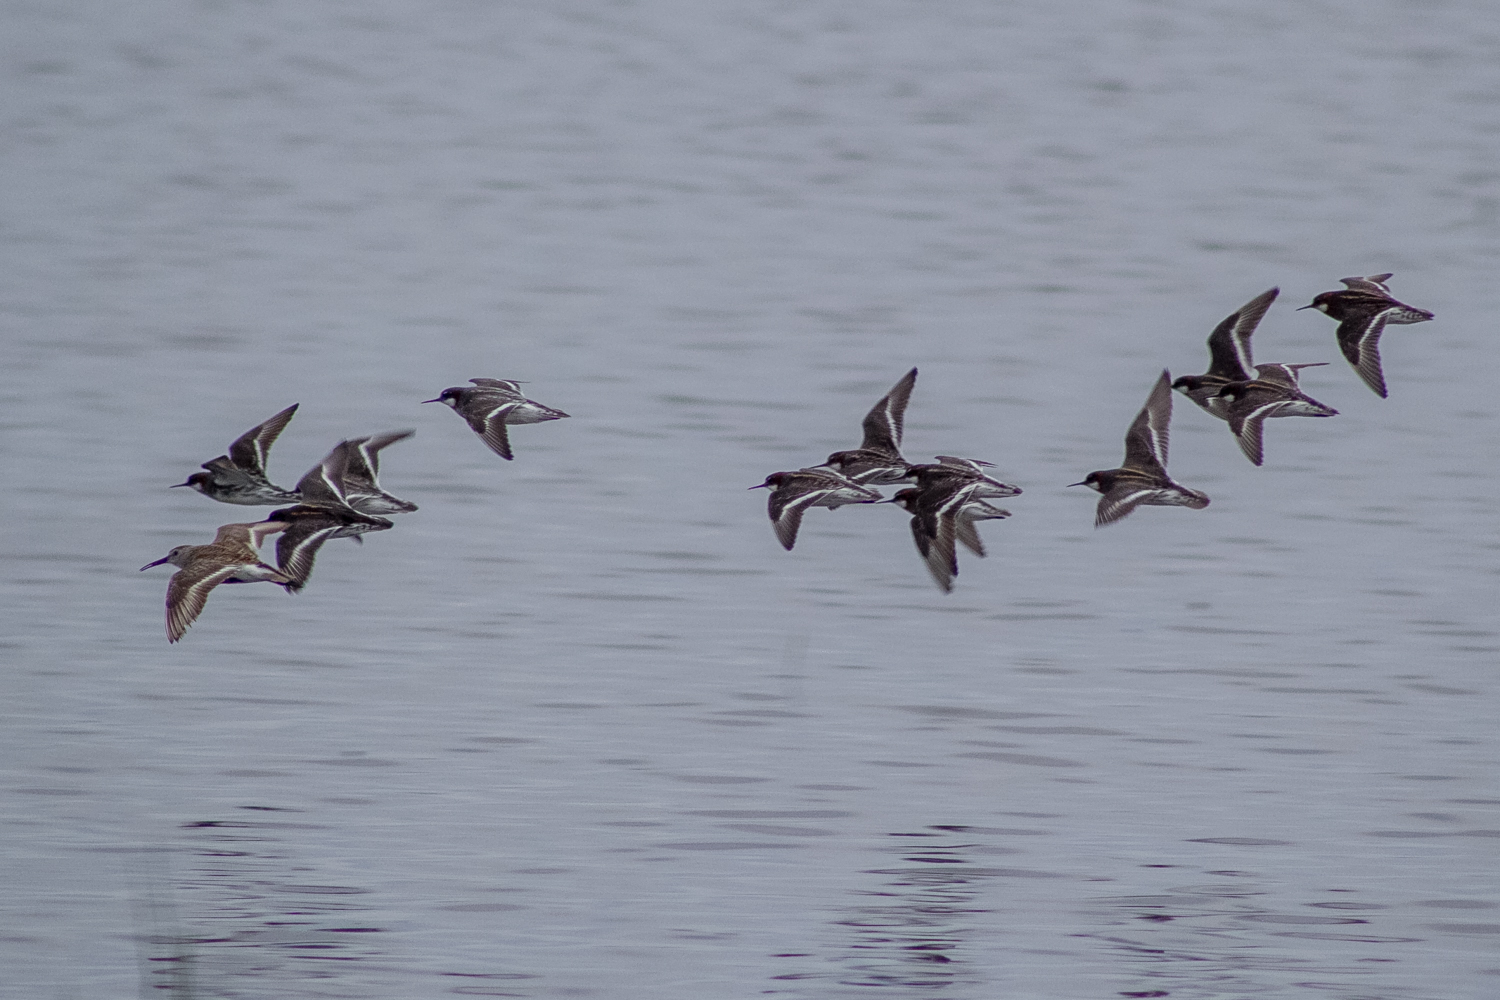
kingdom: Animalia
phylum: Chordata
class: Aves
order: Charadriiformes
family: Scolopacidae
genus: Phalaropus
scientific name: Phalaropus lobatus
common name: Red-necked phalarope
